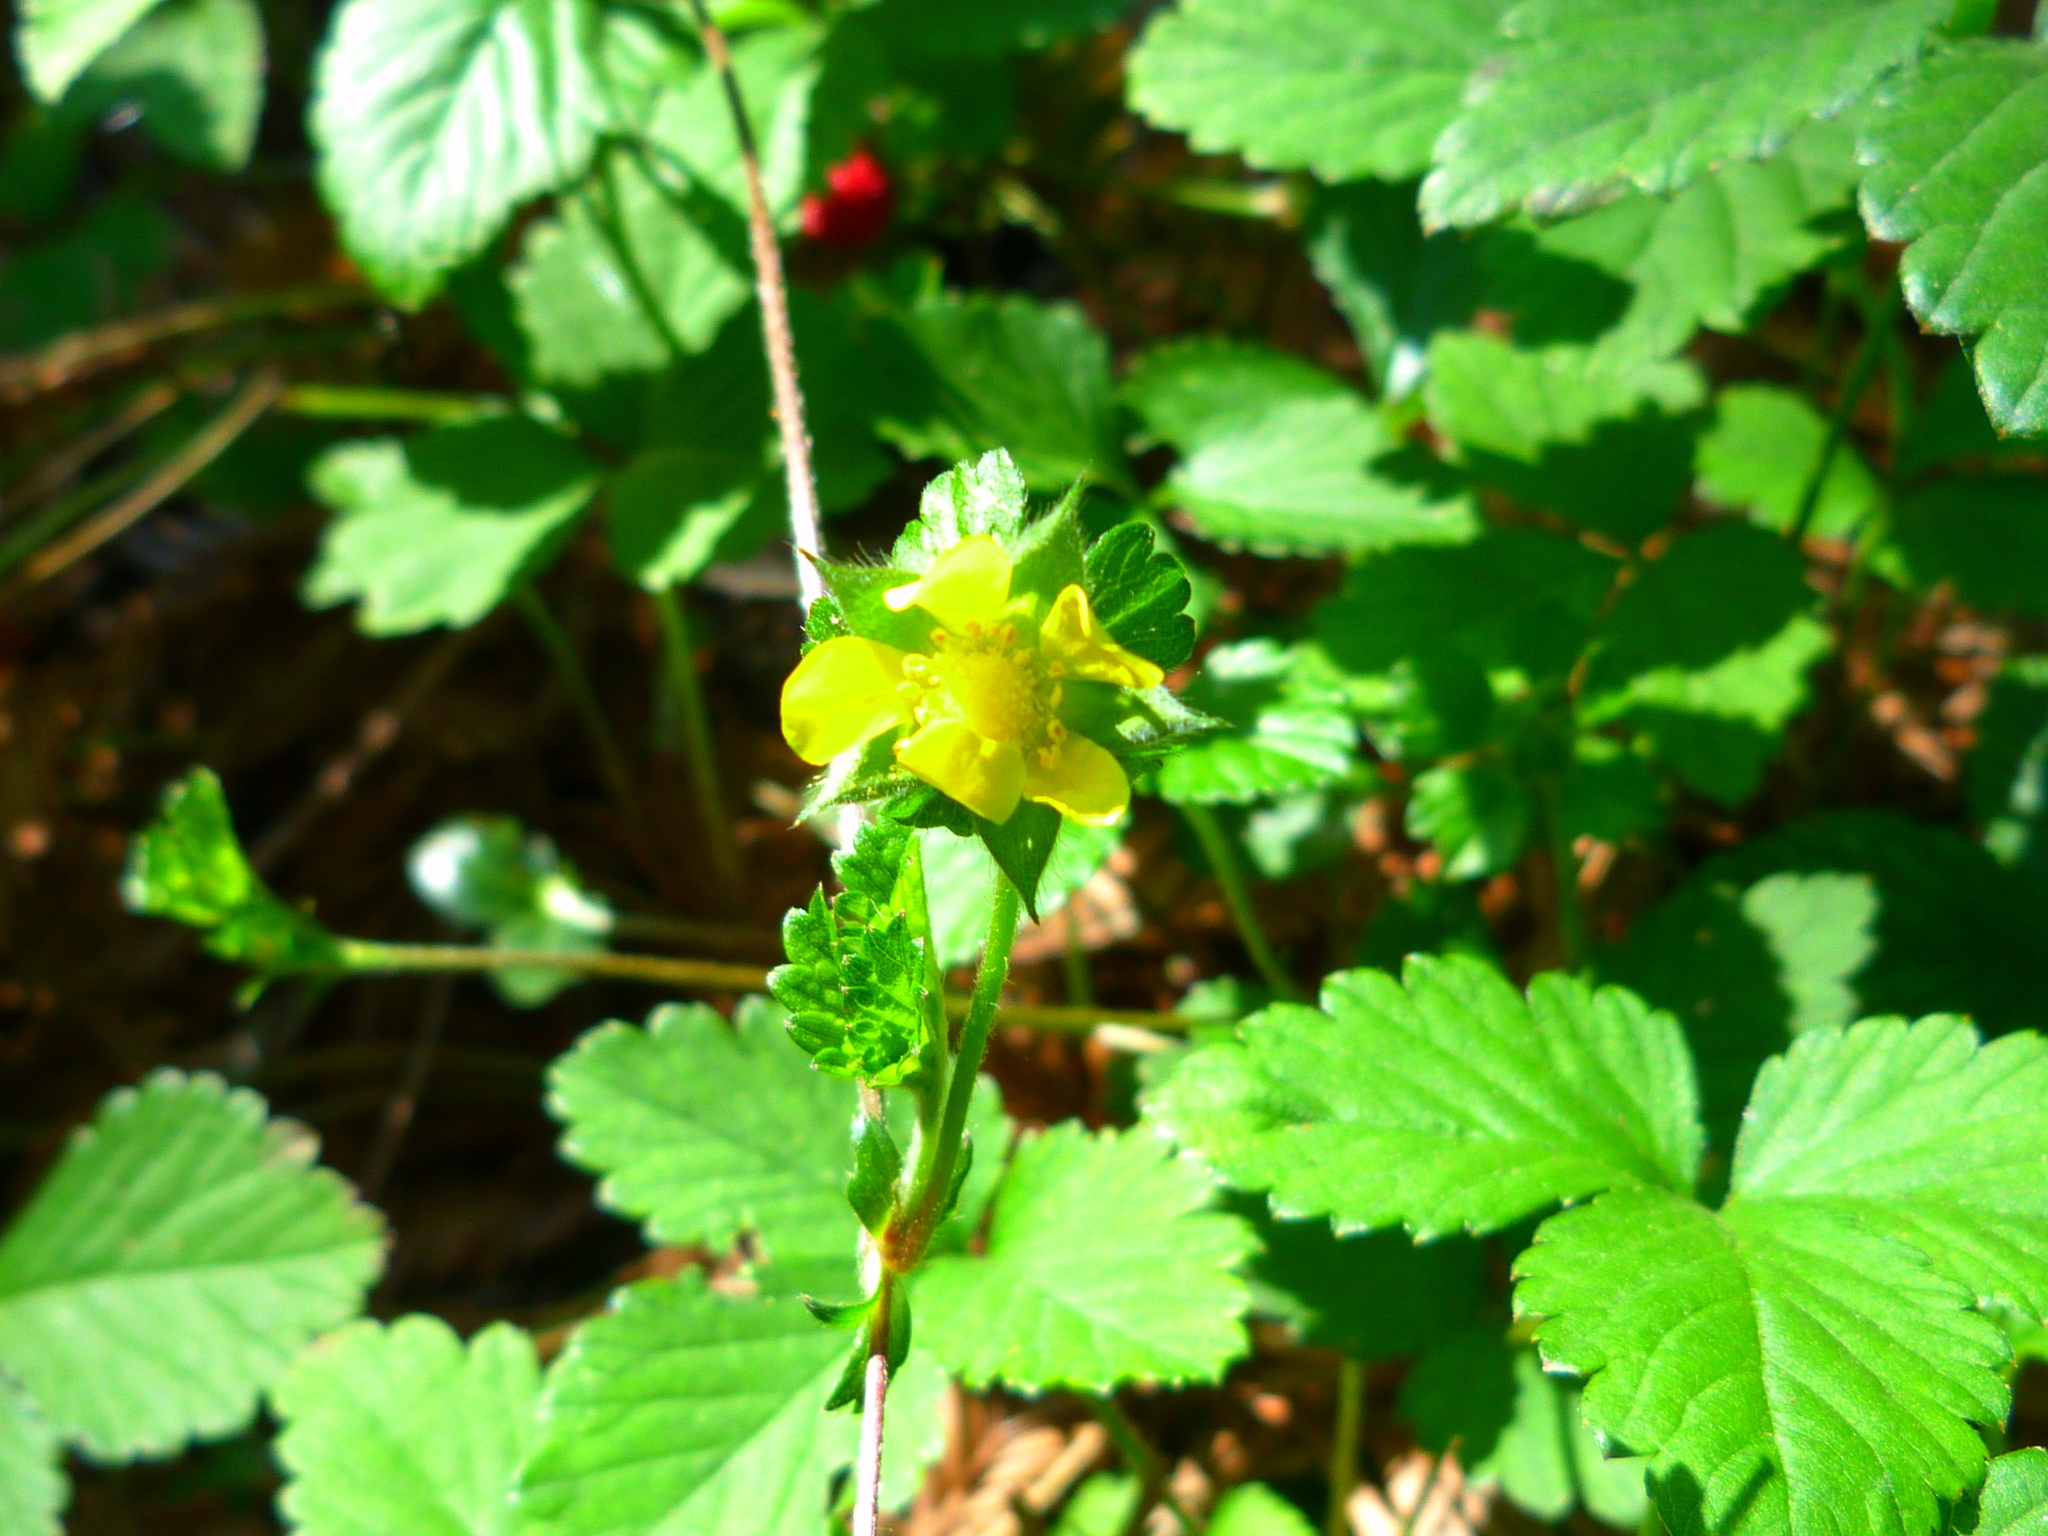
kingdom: Plantae
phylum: Tracheophyta
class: Magnoliopsida
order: Rosales
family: Rosaceae
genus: Potentilla
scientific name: Potentilla indica
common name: Yellow-flowered strawberry
